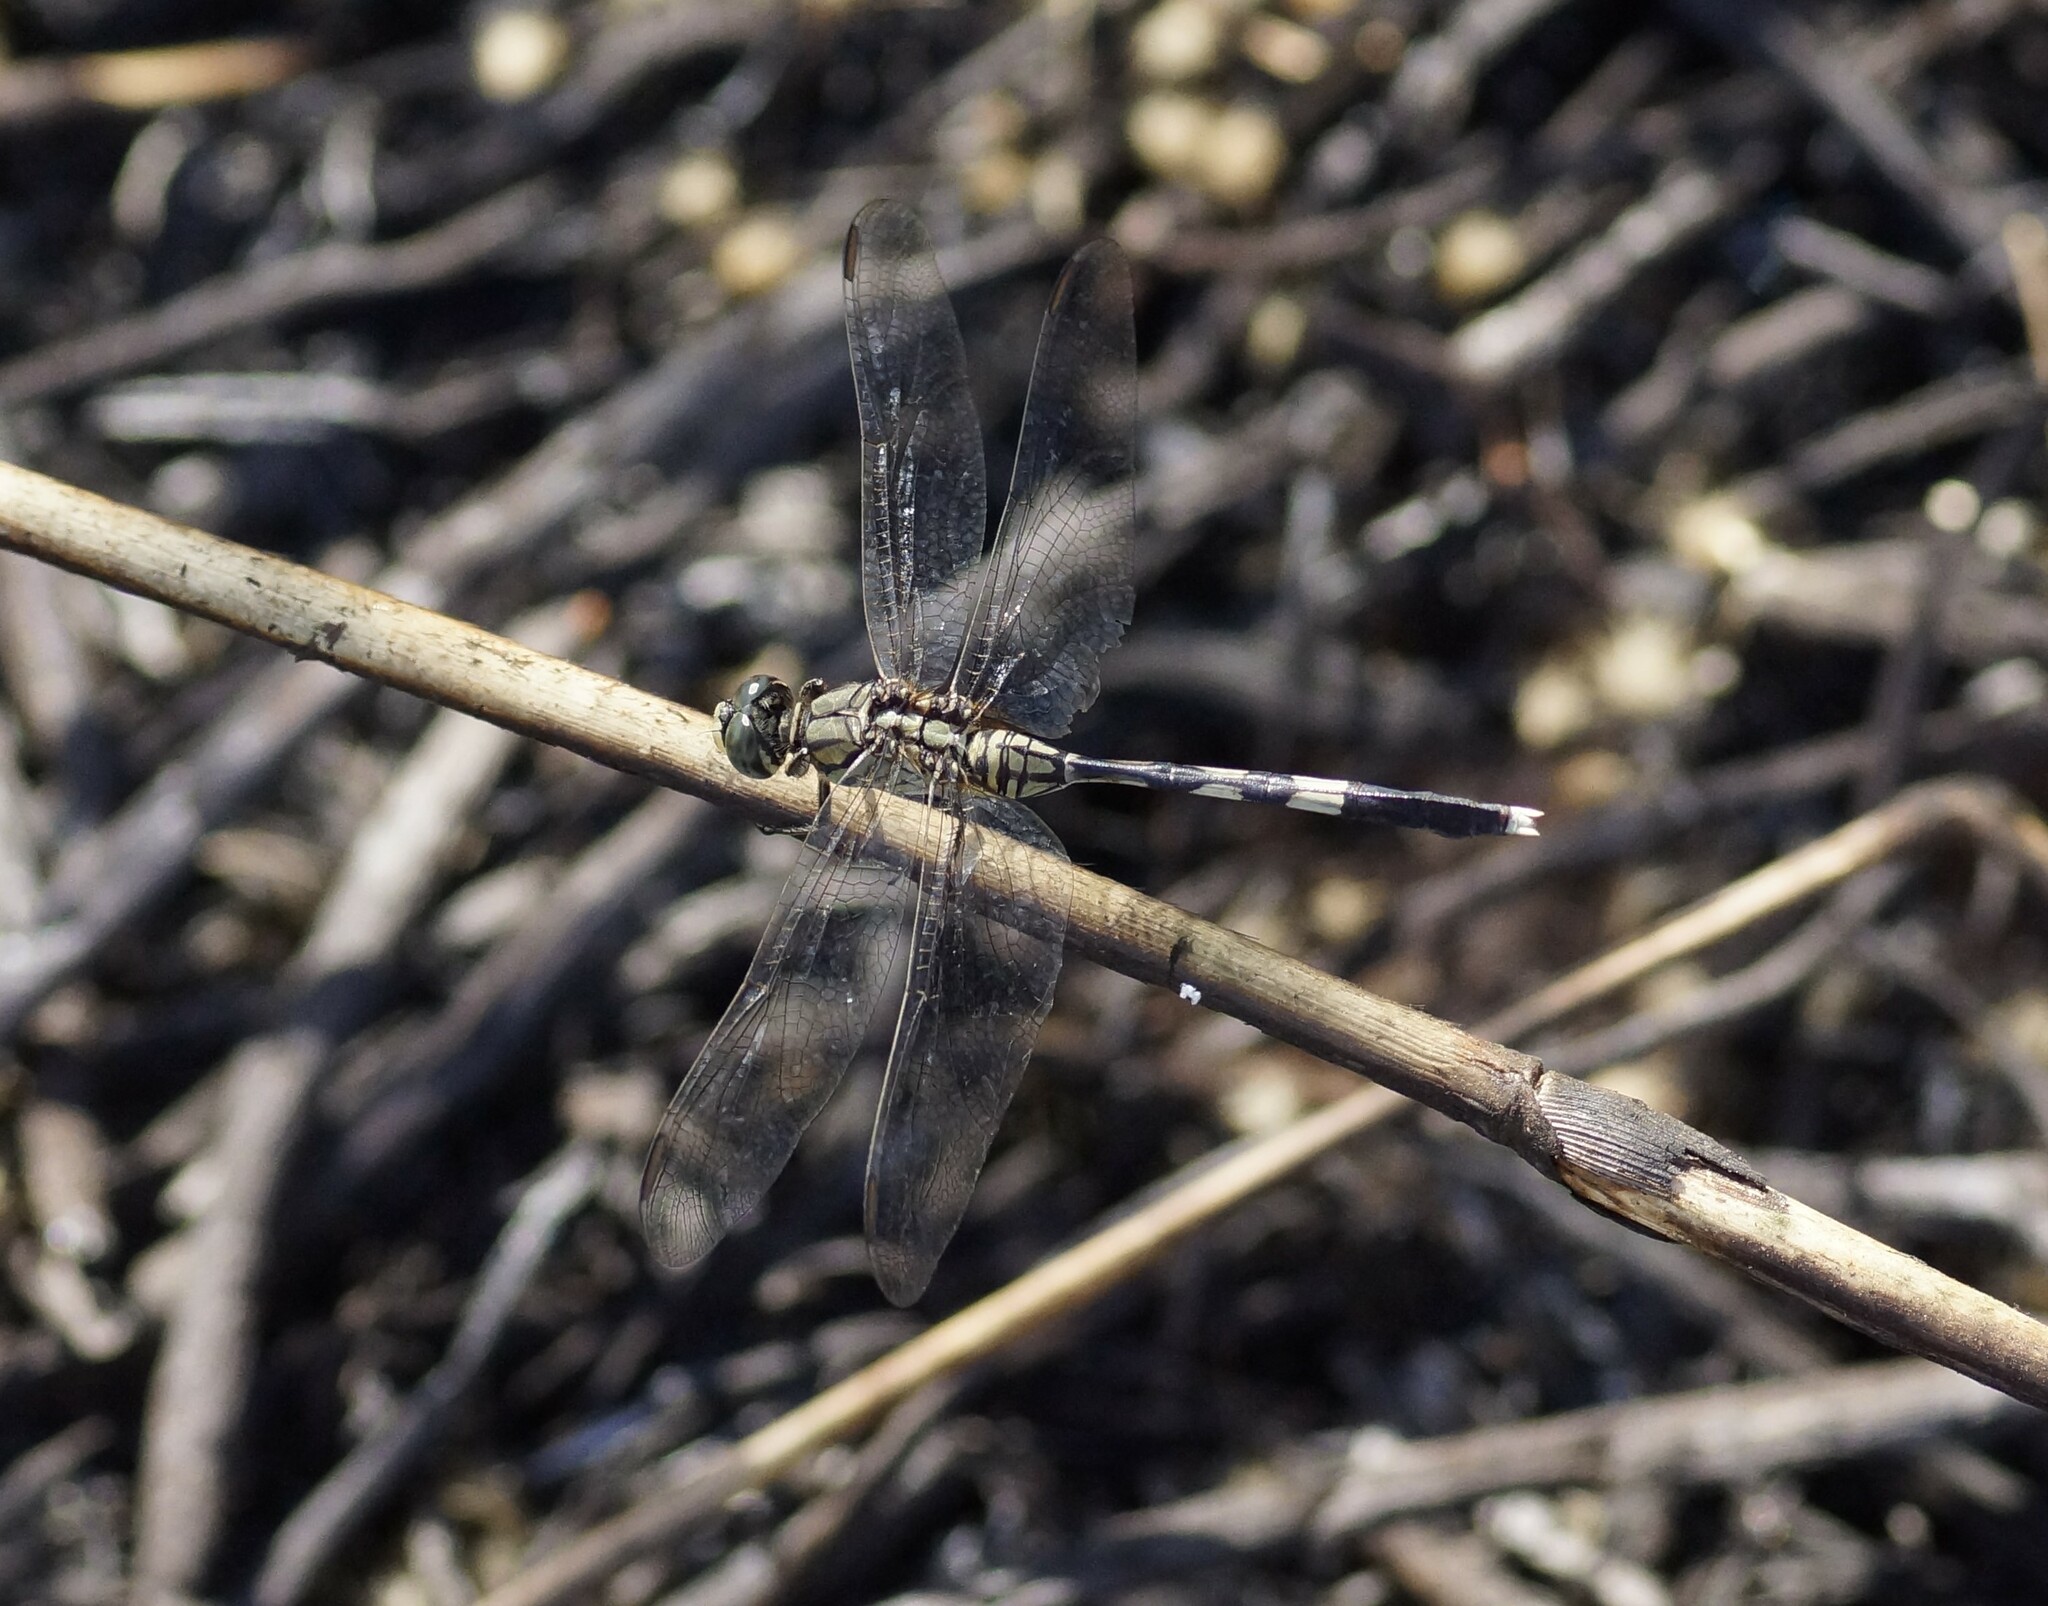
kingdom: Animalia
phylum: Arthropoda
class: Insecta
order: Odonata
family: Libellulidae
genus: Orthetrum
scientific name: Orthetrum sabina
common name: Slender skimmer
